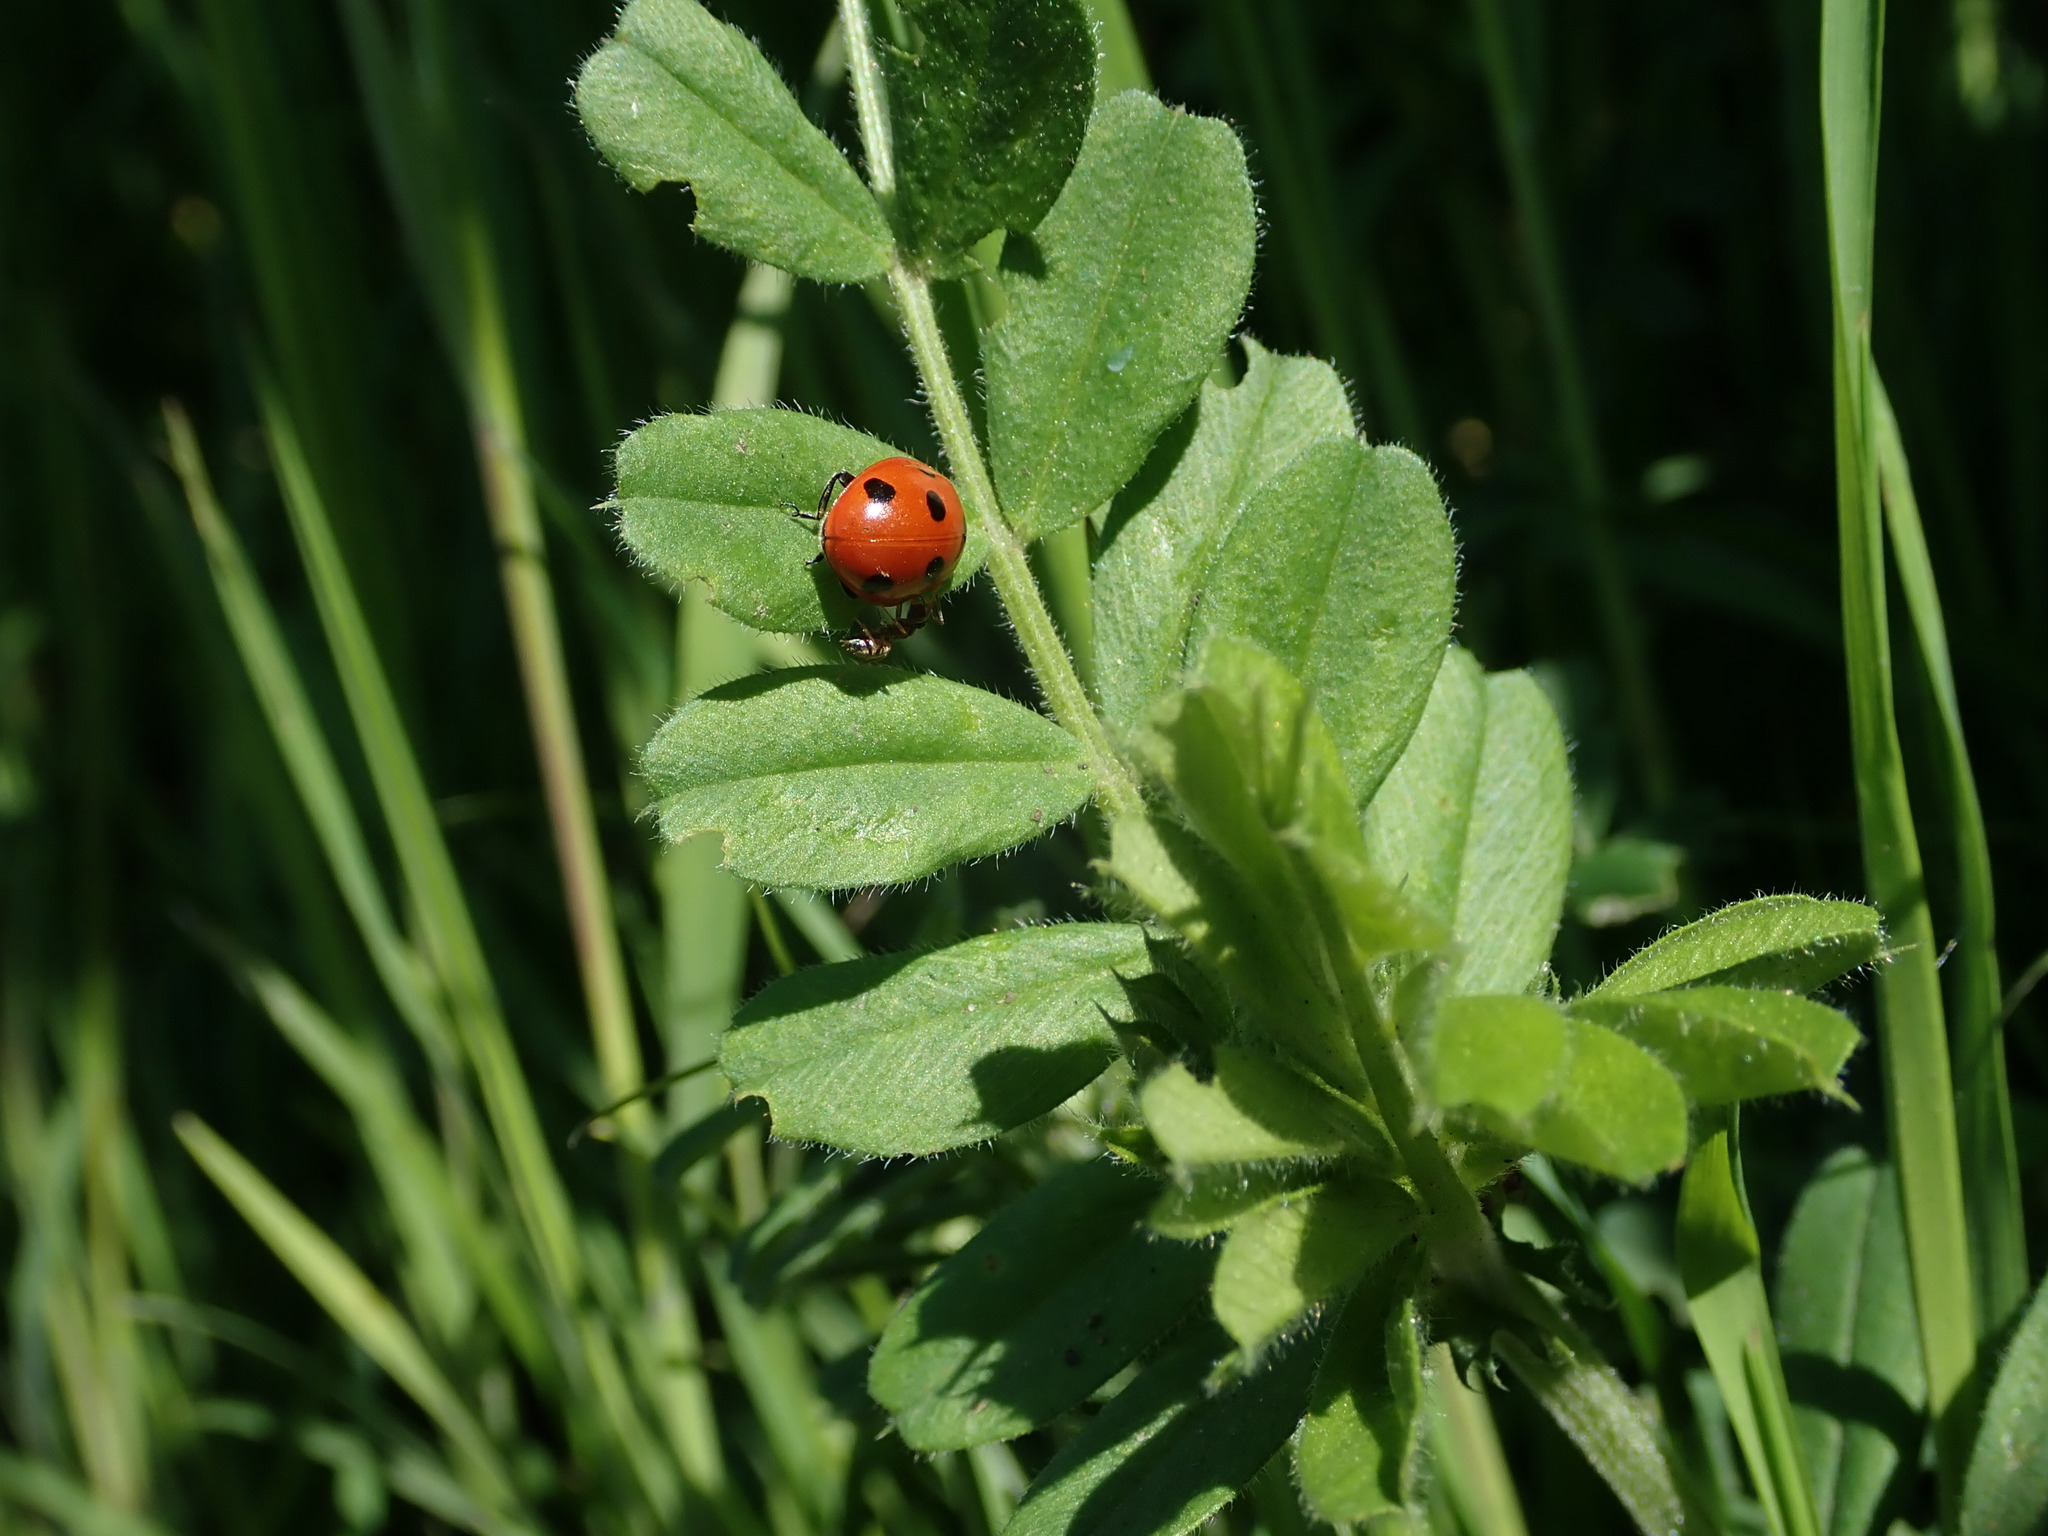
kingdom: Animalia
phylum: Arthropoda
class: Insecta
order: Coleoptera
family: Coccinellidae
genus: Coccinella
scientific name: Coccinella septempunctata
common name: Sevenspotted lady beetle
